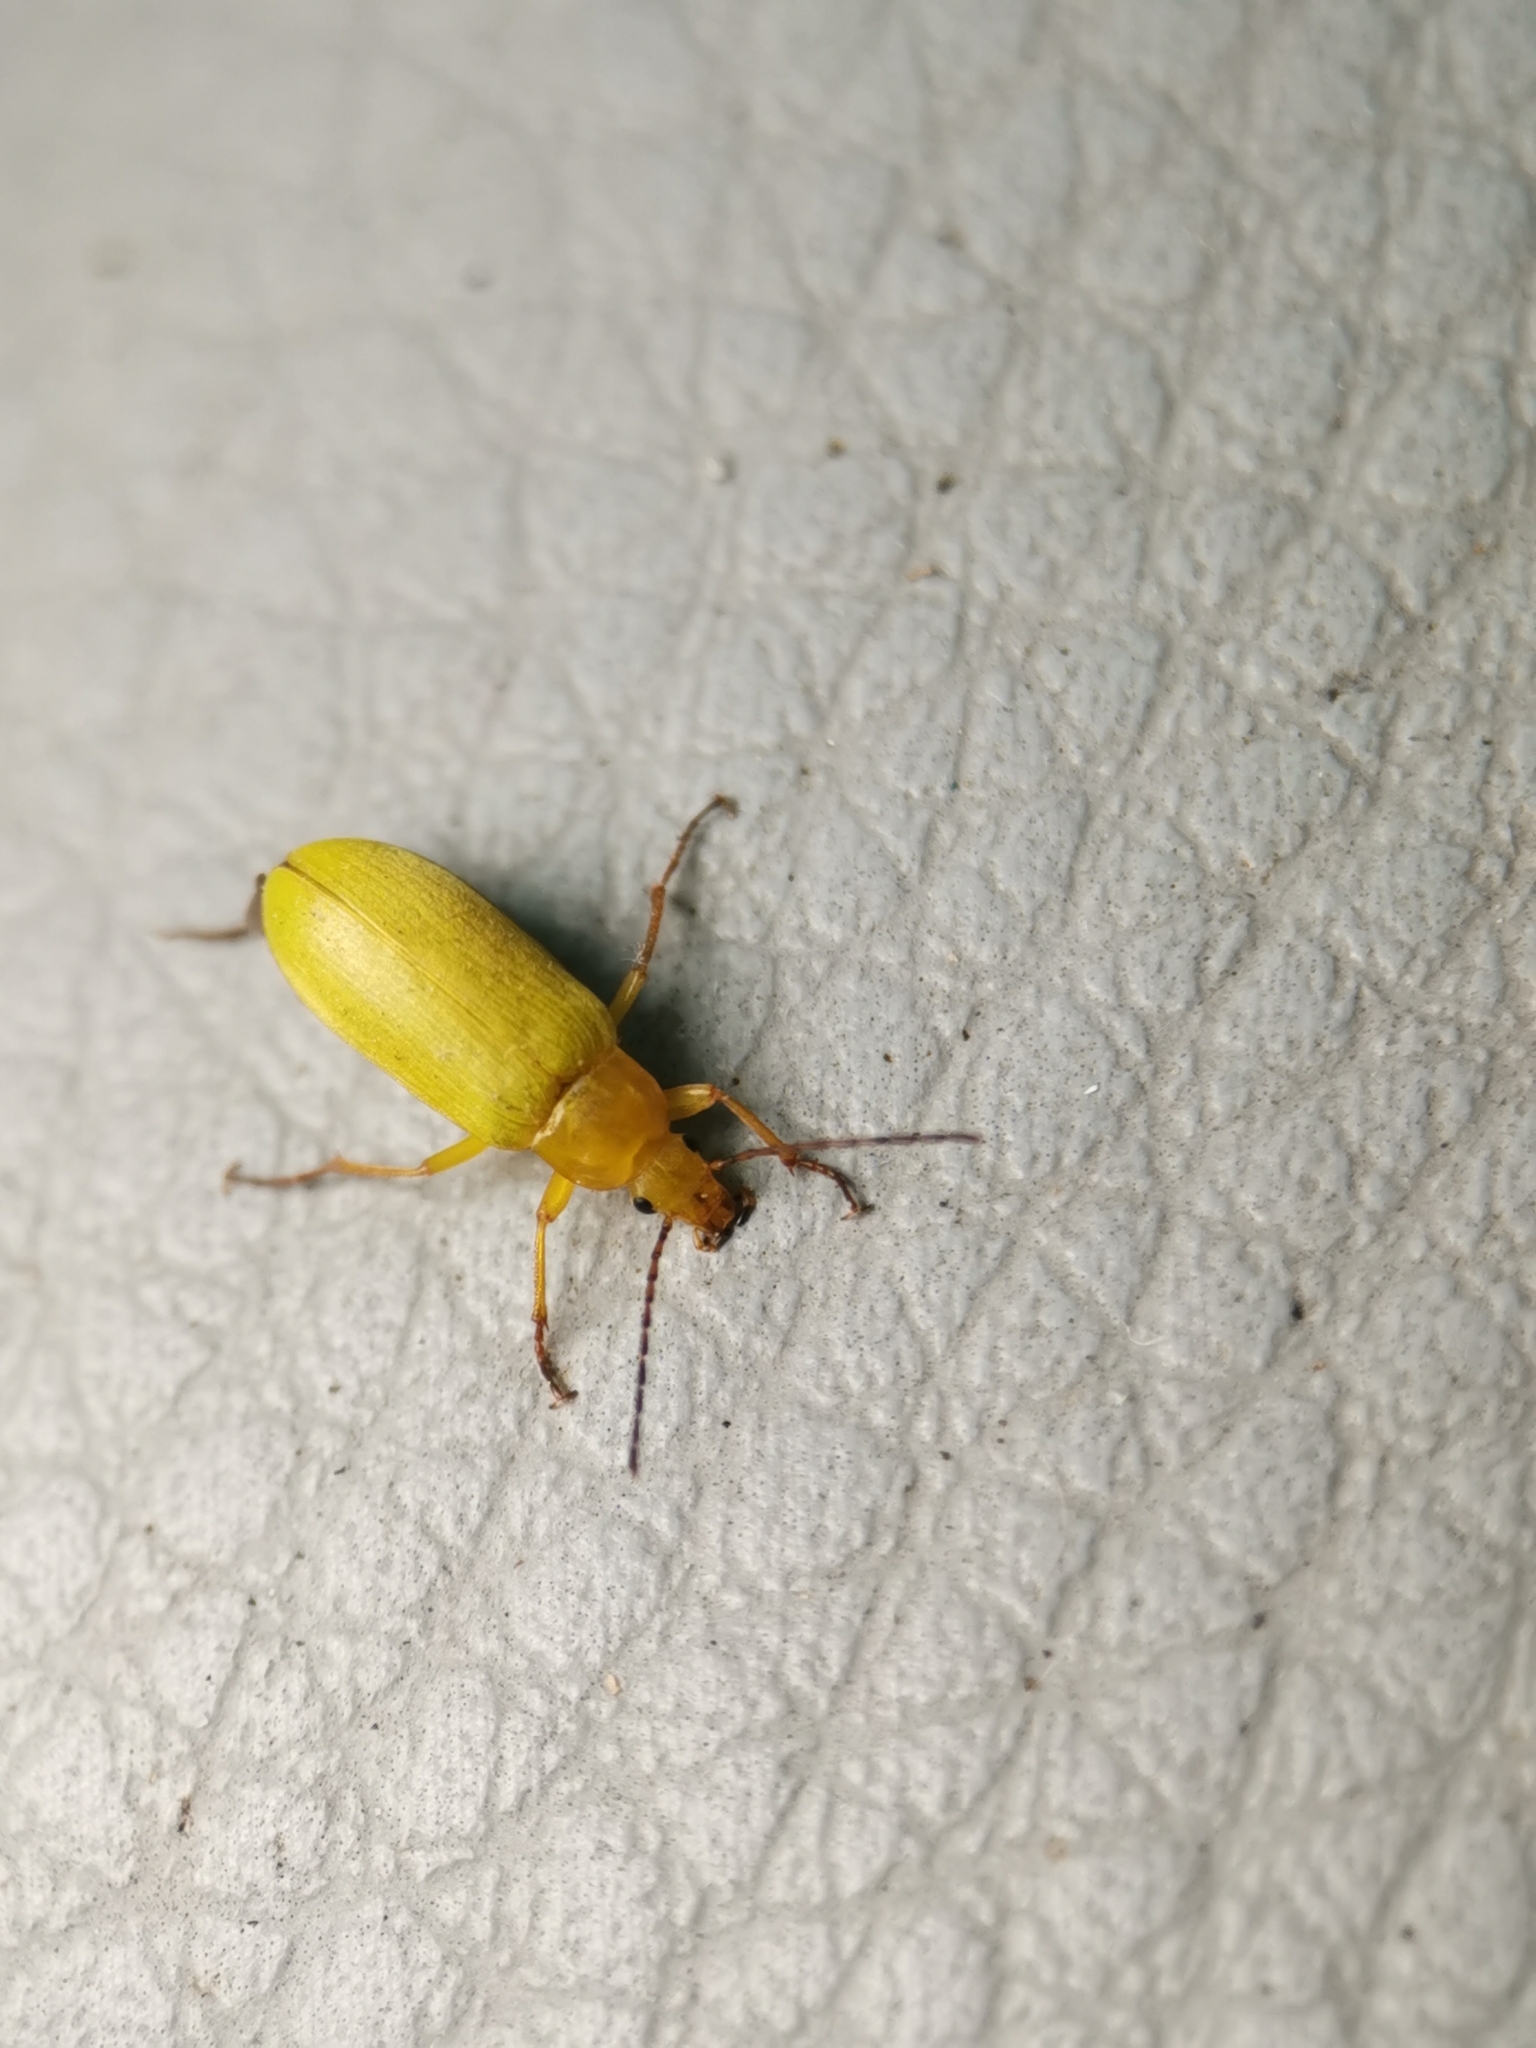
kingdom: Animalia
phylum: Arthropoda
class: Insecta
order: Coleoptera
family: Tenebrionidae
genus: Cteniopus
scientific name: Cteniopus sulphureus
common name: Sulphur beetle
